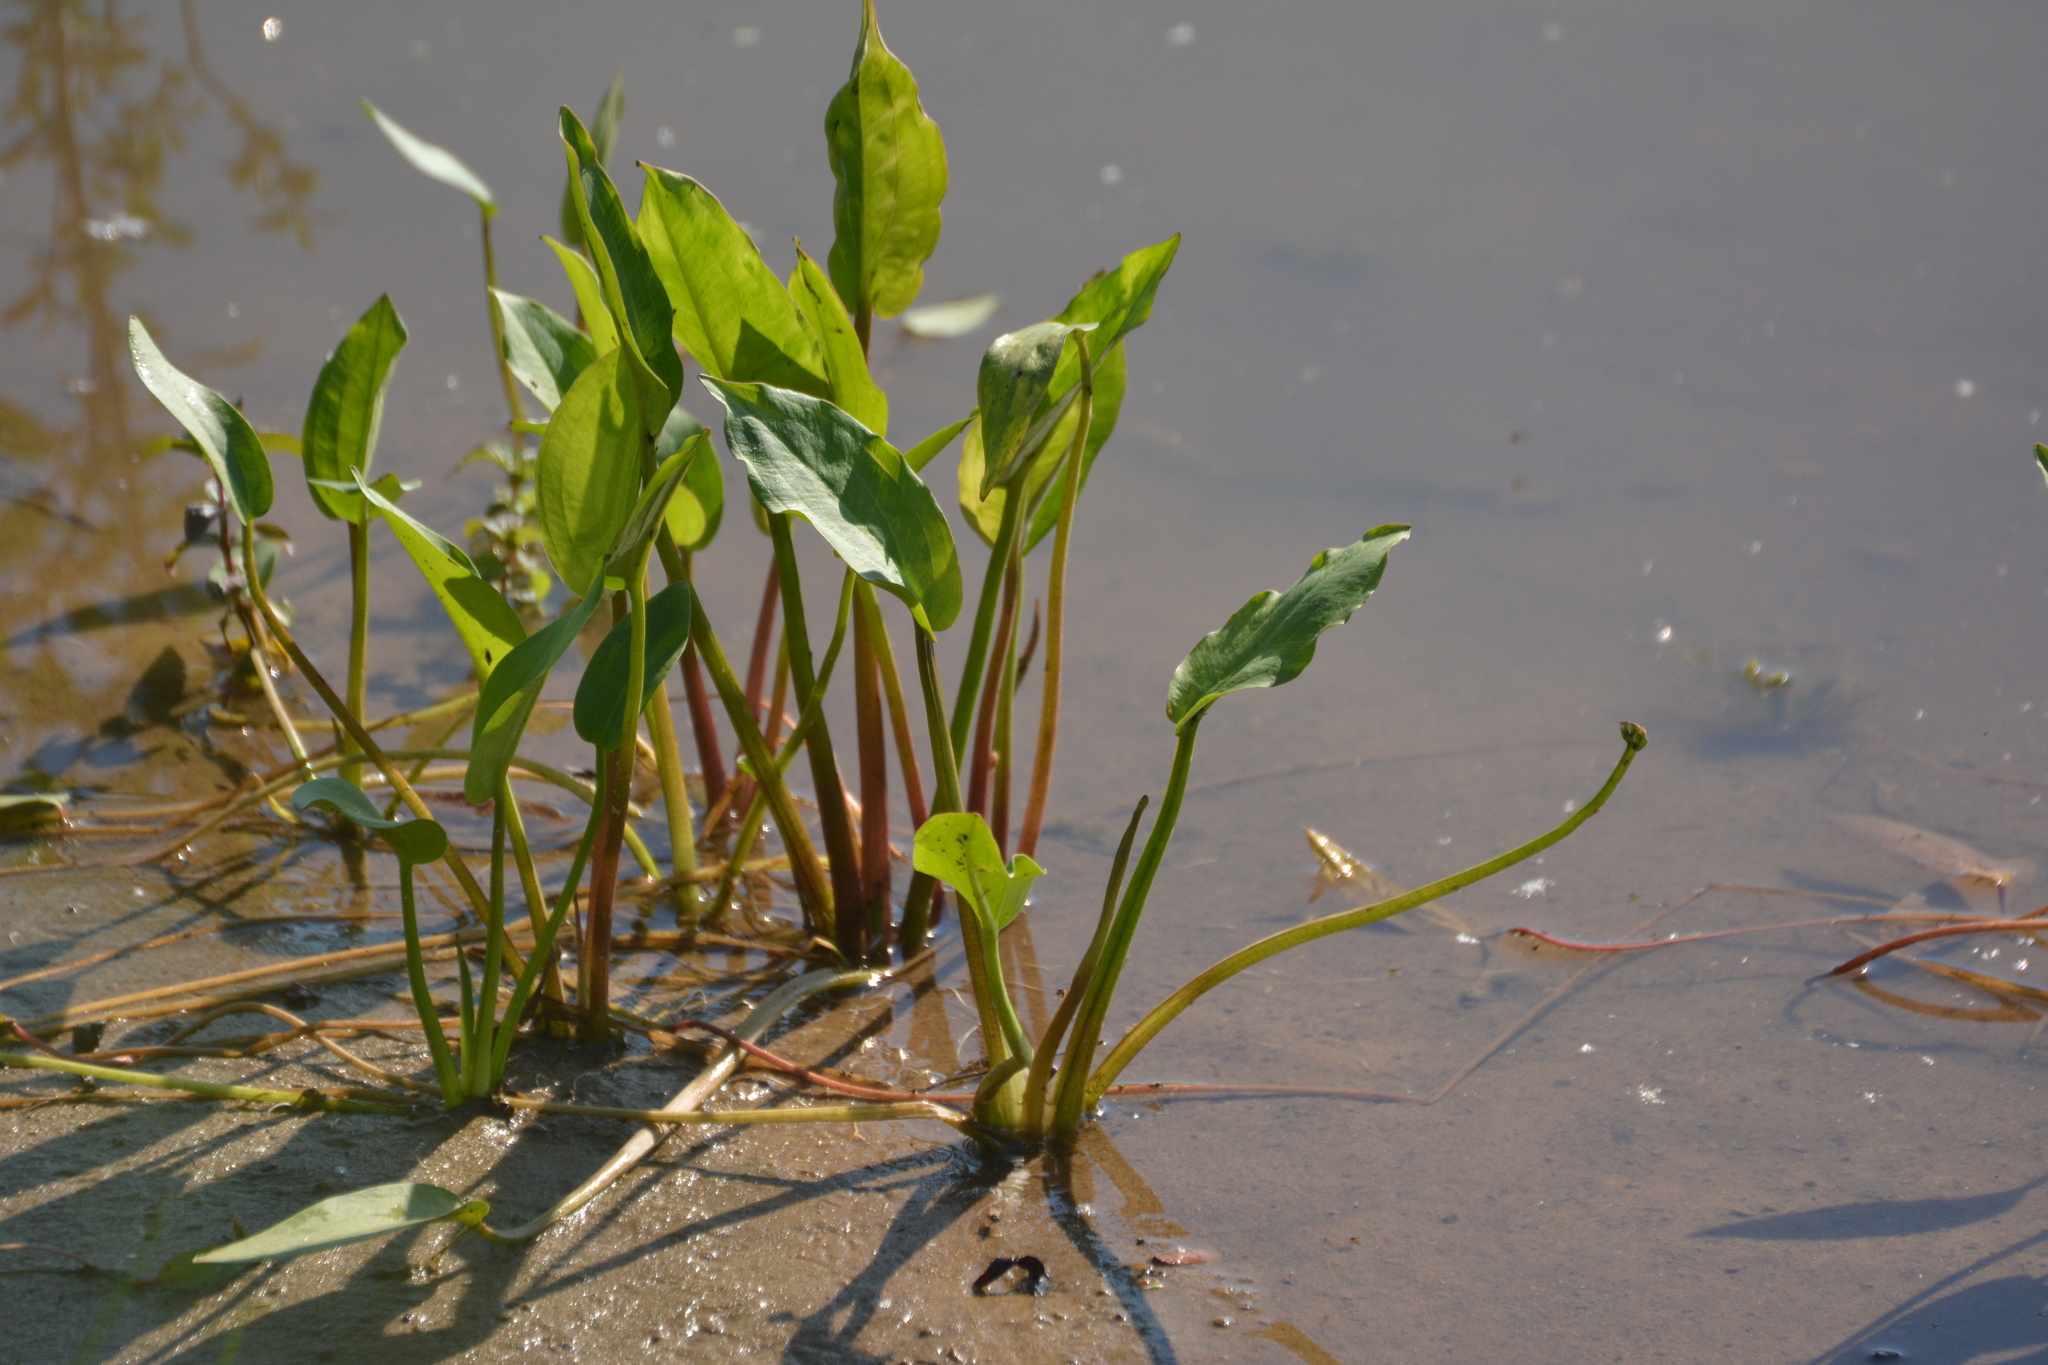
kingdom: Plantae
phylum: Tracheophyta
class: Liliopsida
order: Alismatales
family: Alismataceae
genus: Alisma
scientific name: Alisma plantago-aquatica
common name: Water-plantain
